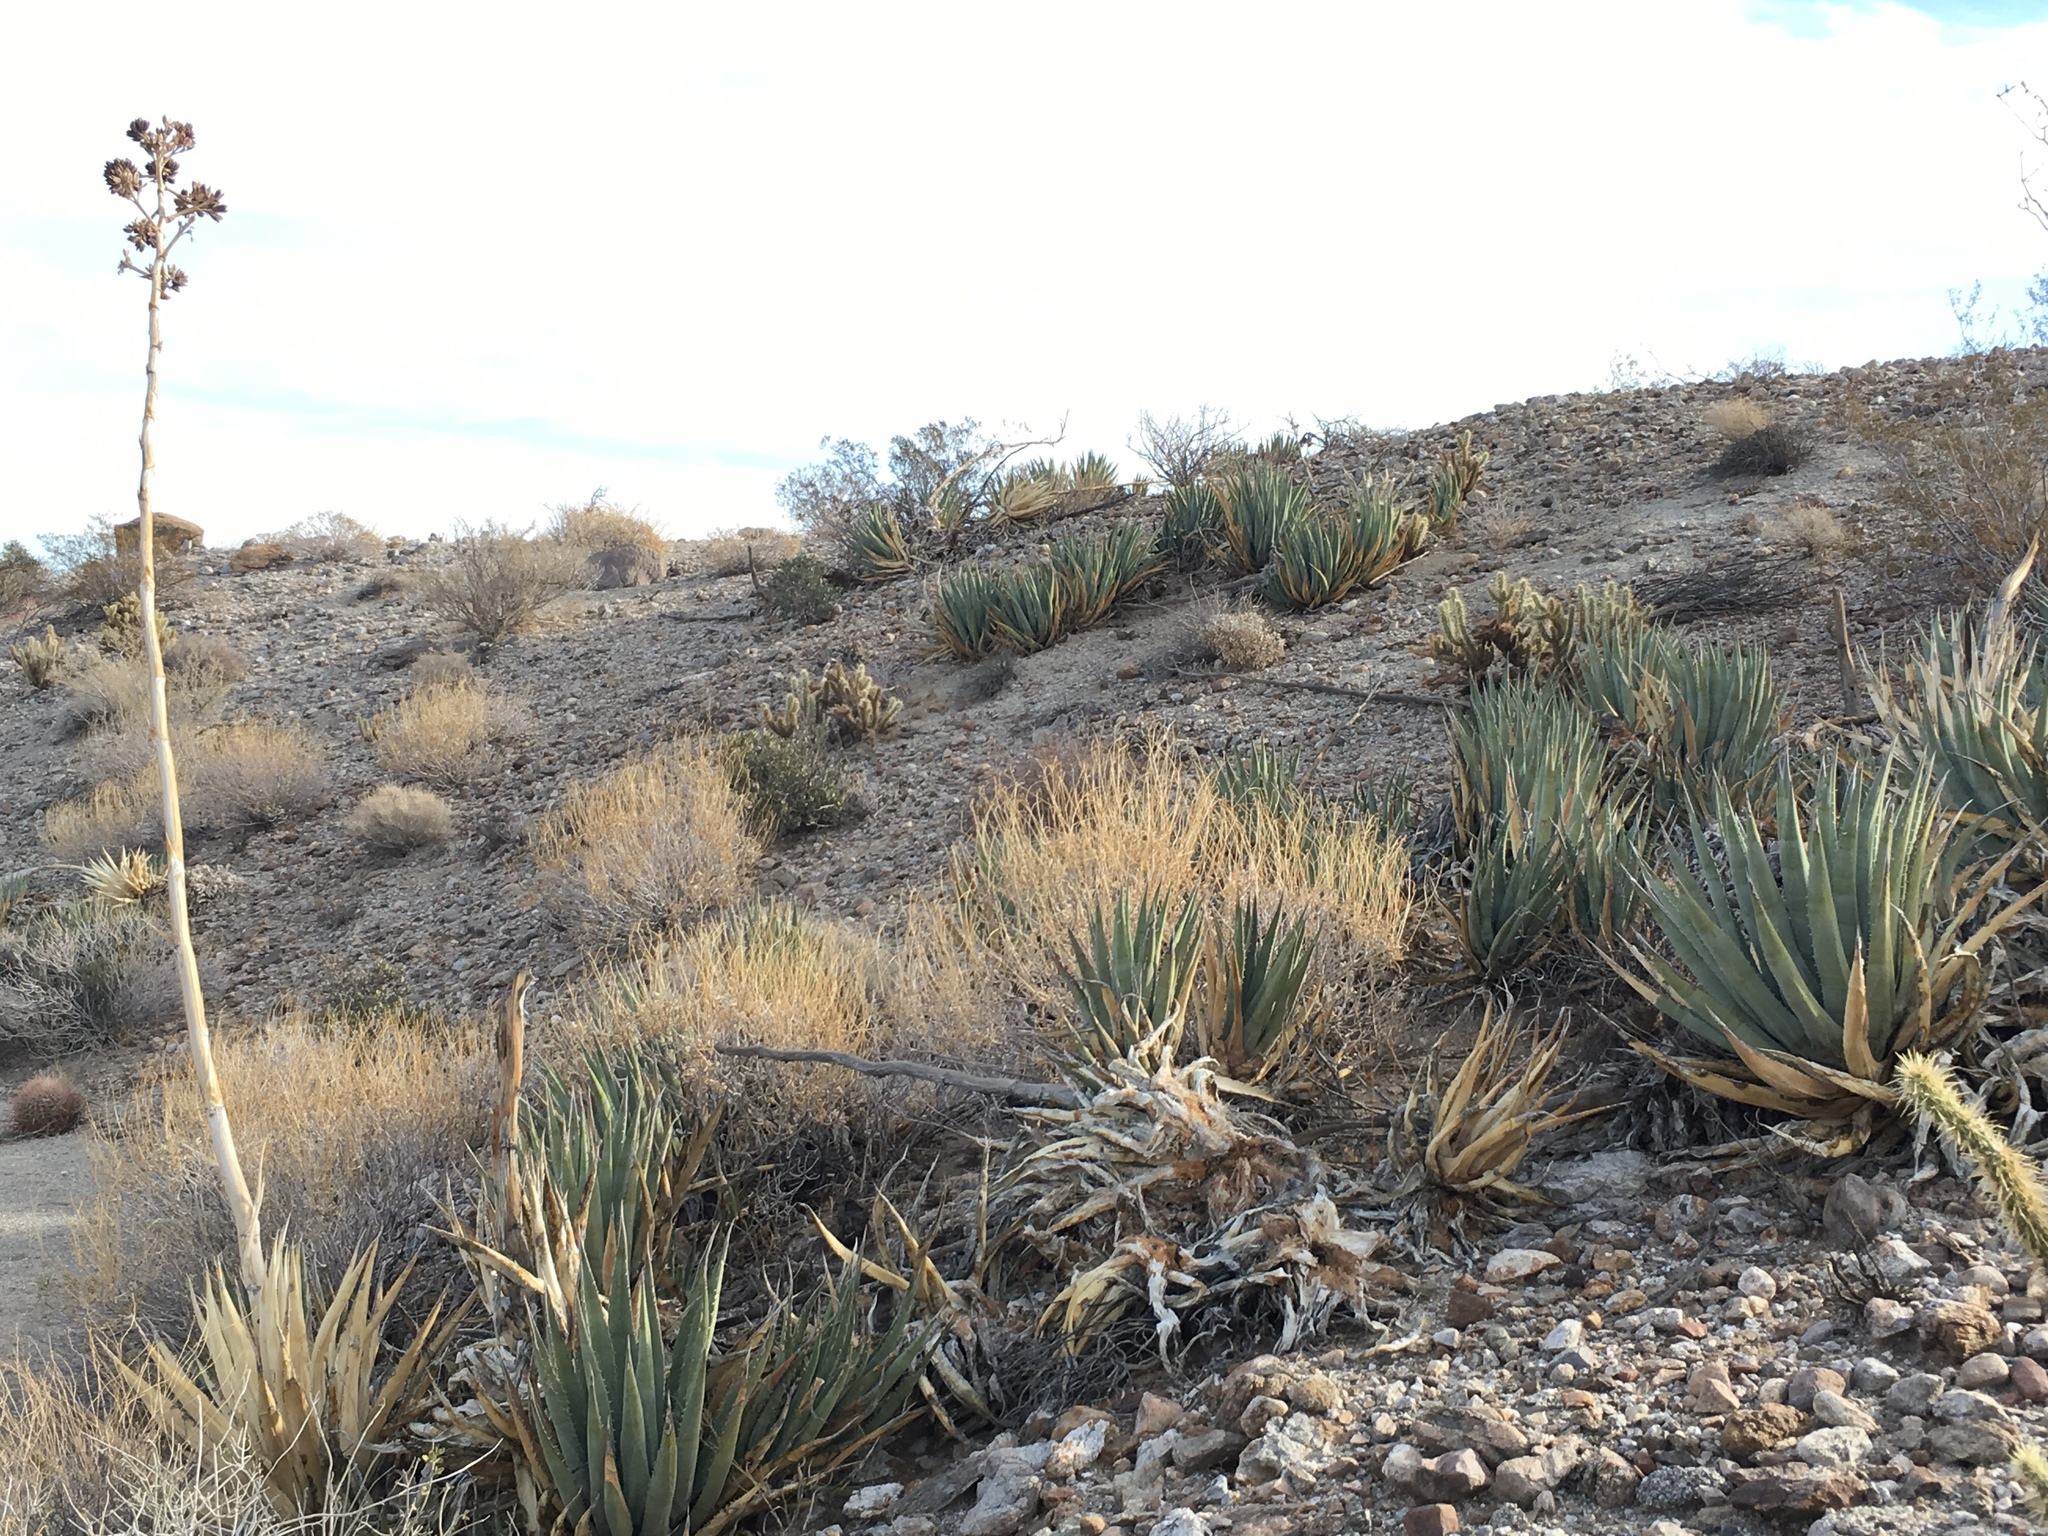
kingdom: Plantae
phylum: Tracheophyta
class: Liliopsida
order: Asparagales
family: Asparagaceae
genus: Agave
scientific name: Agave deserti
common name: Desert agave
